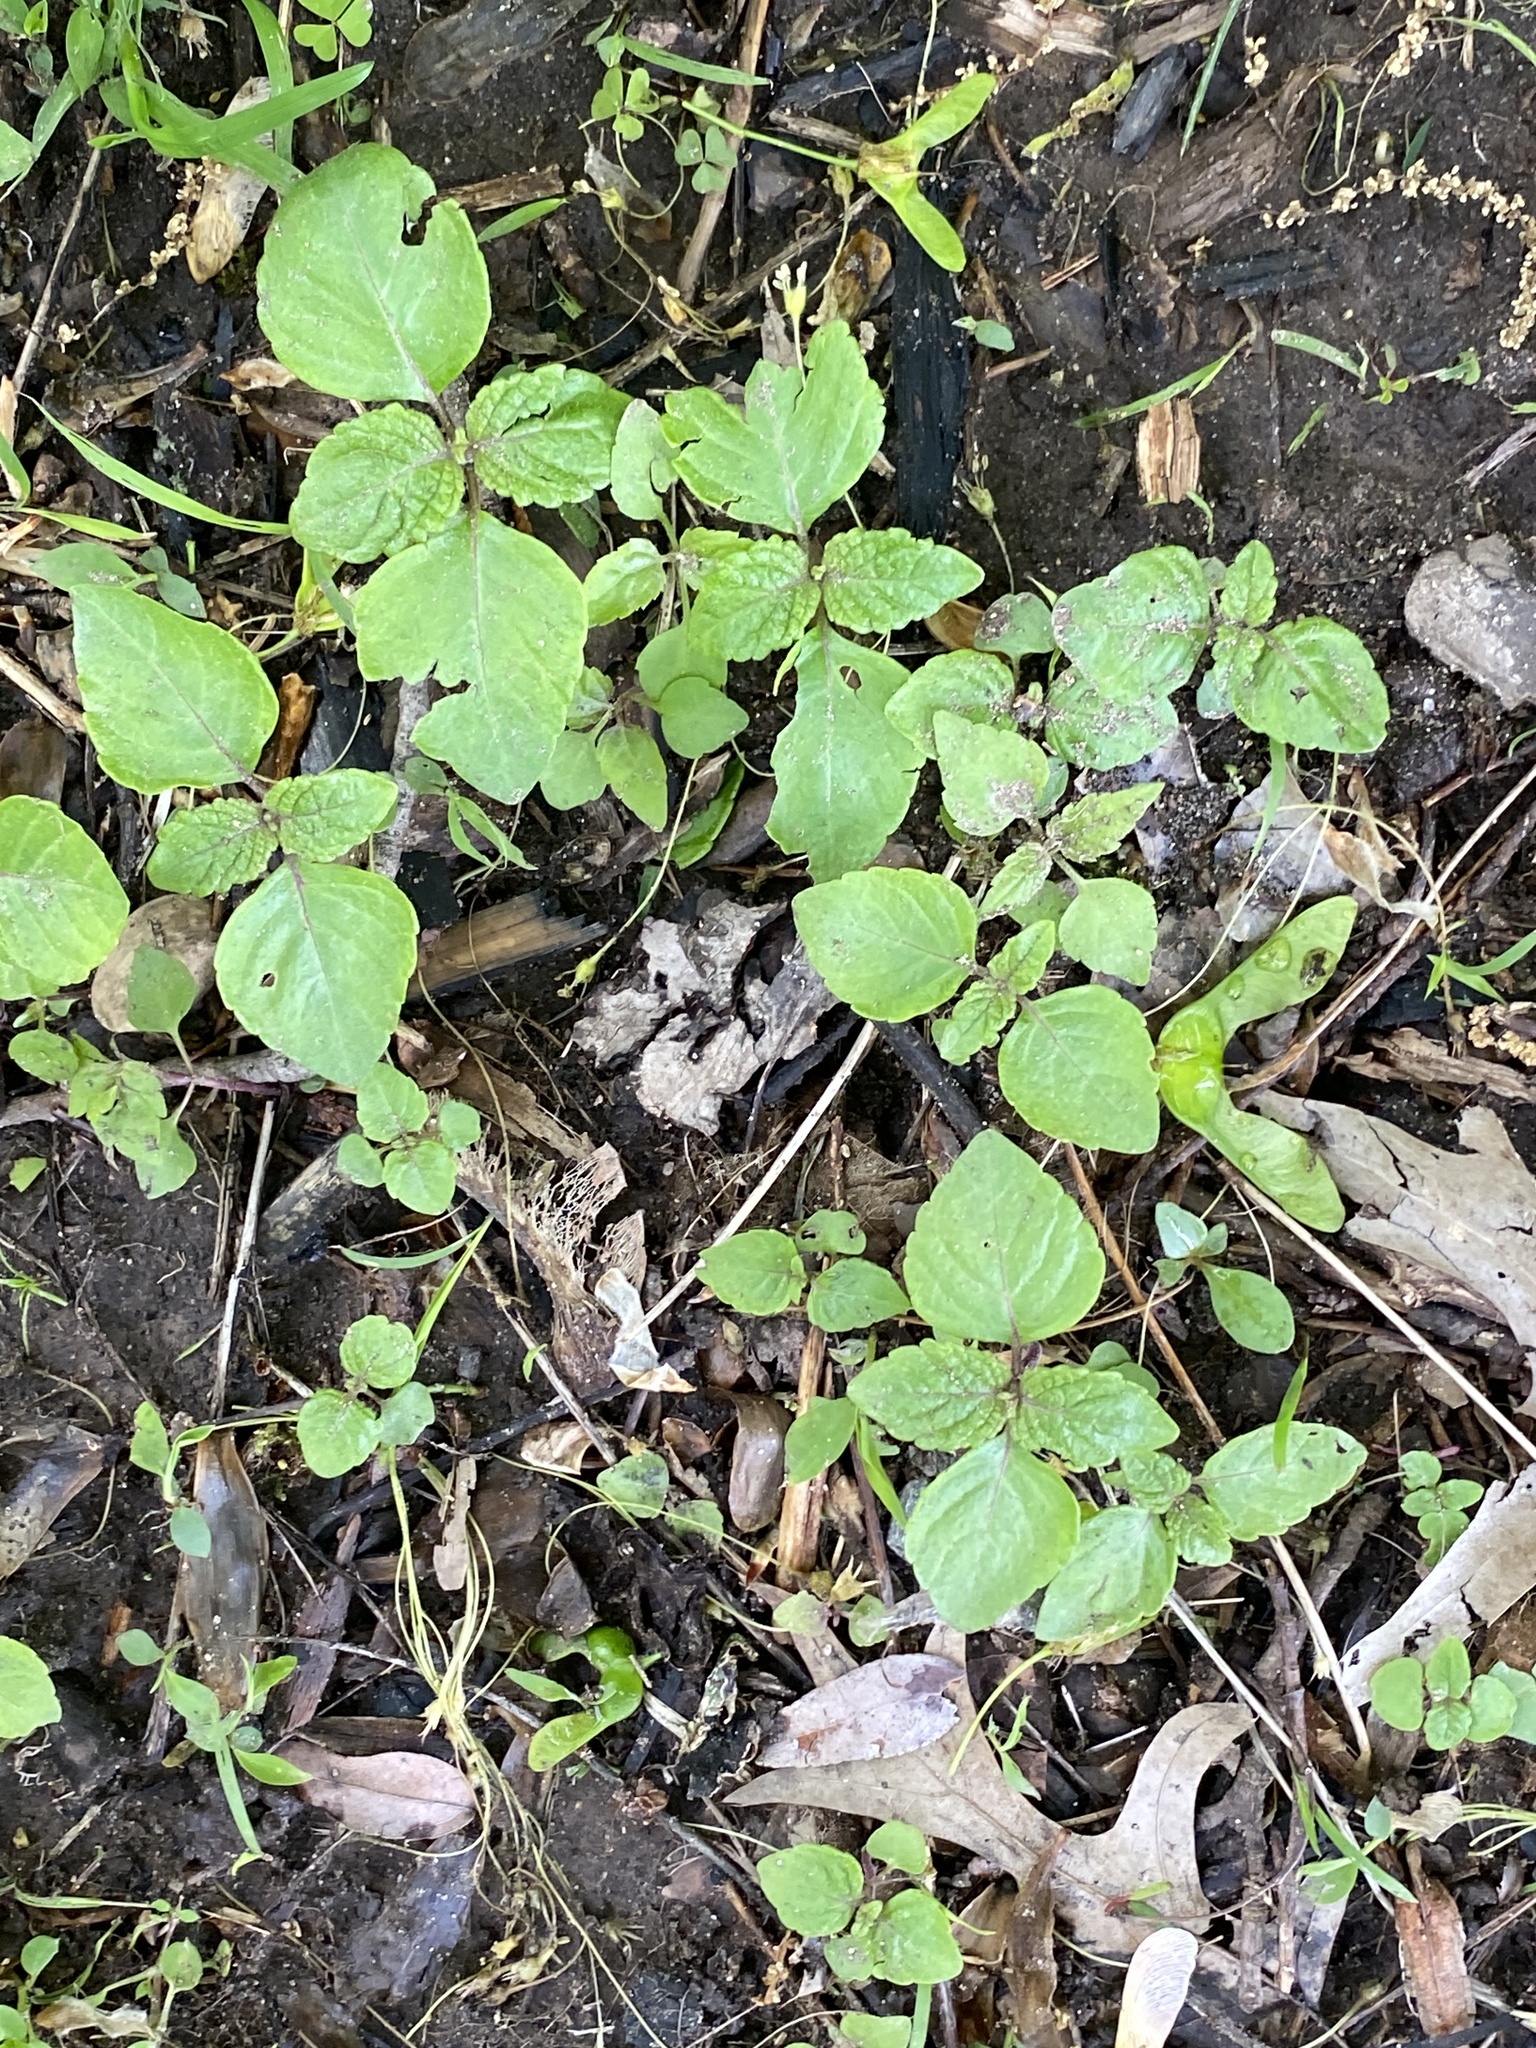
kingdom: Plantae
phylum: Tracheophyta
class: Magnoliopsida
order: Lamiales
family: Lamiaceae
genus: Perilla
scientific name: Perilla frutescens
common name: Perilla
